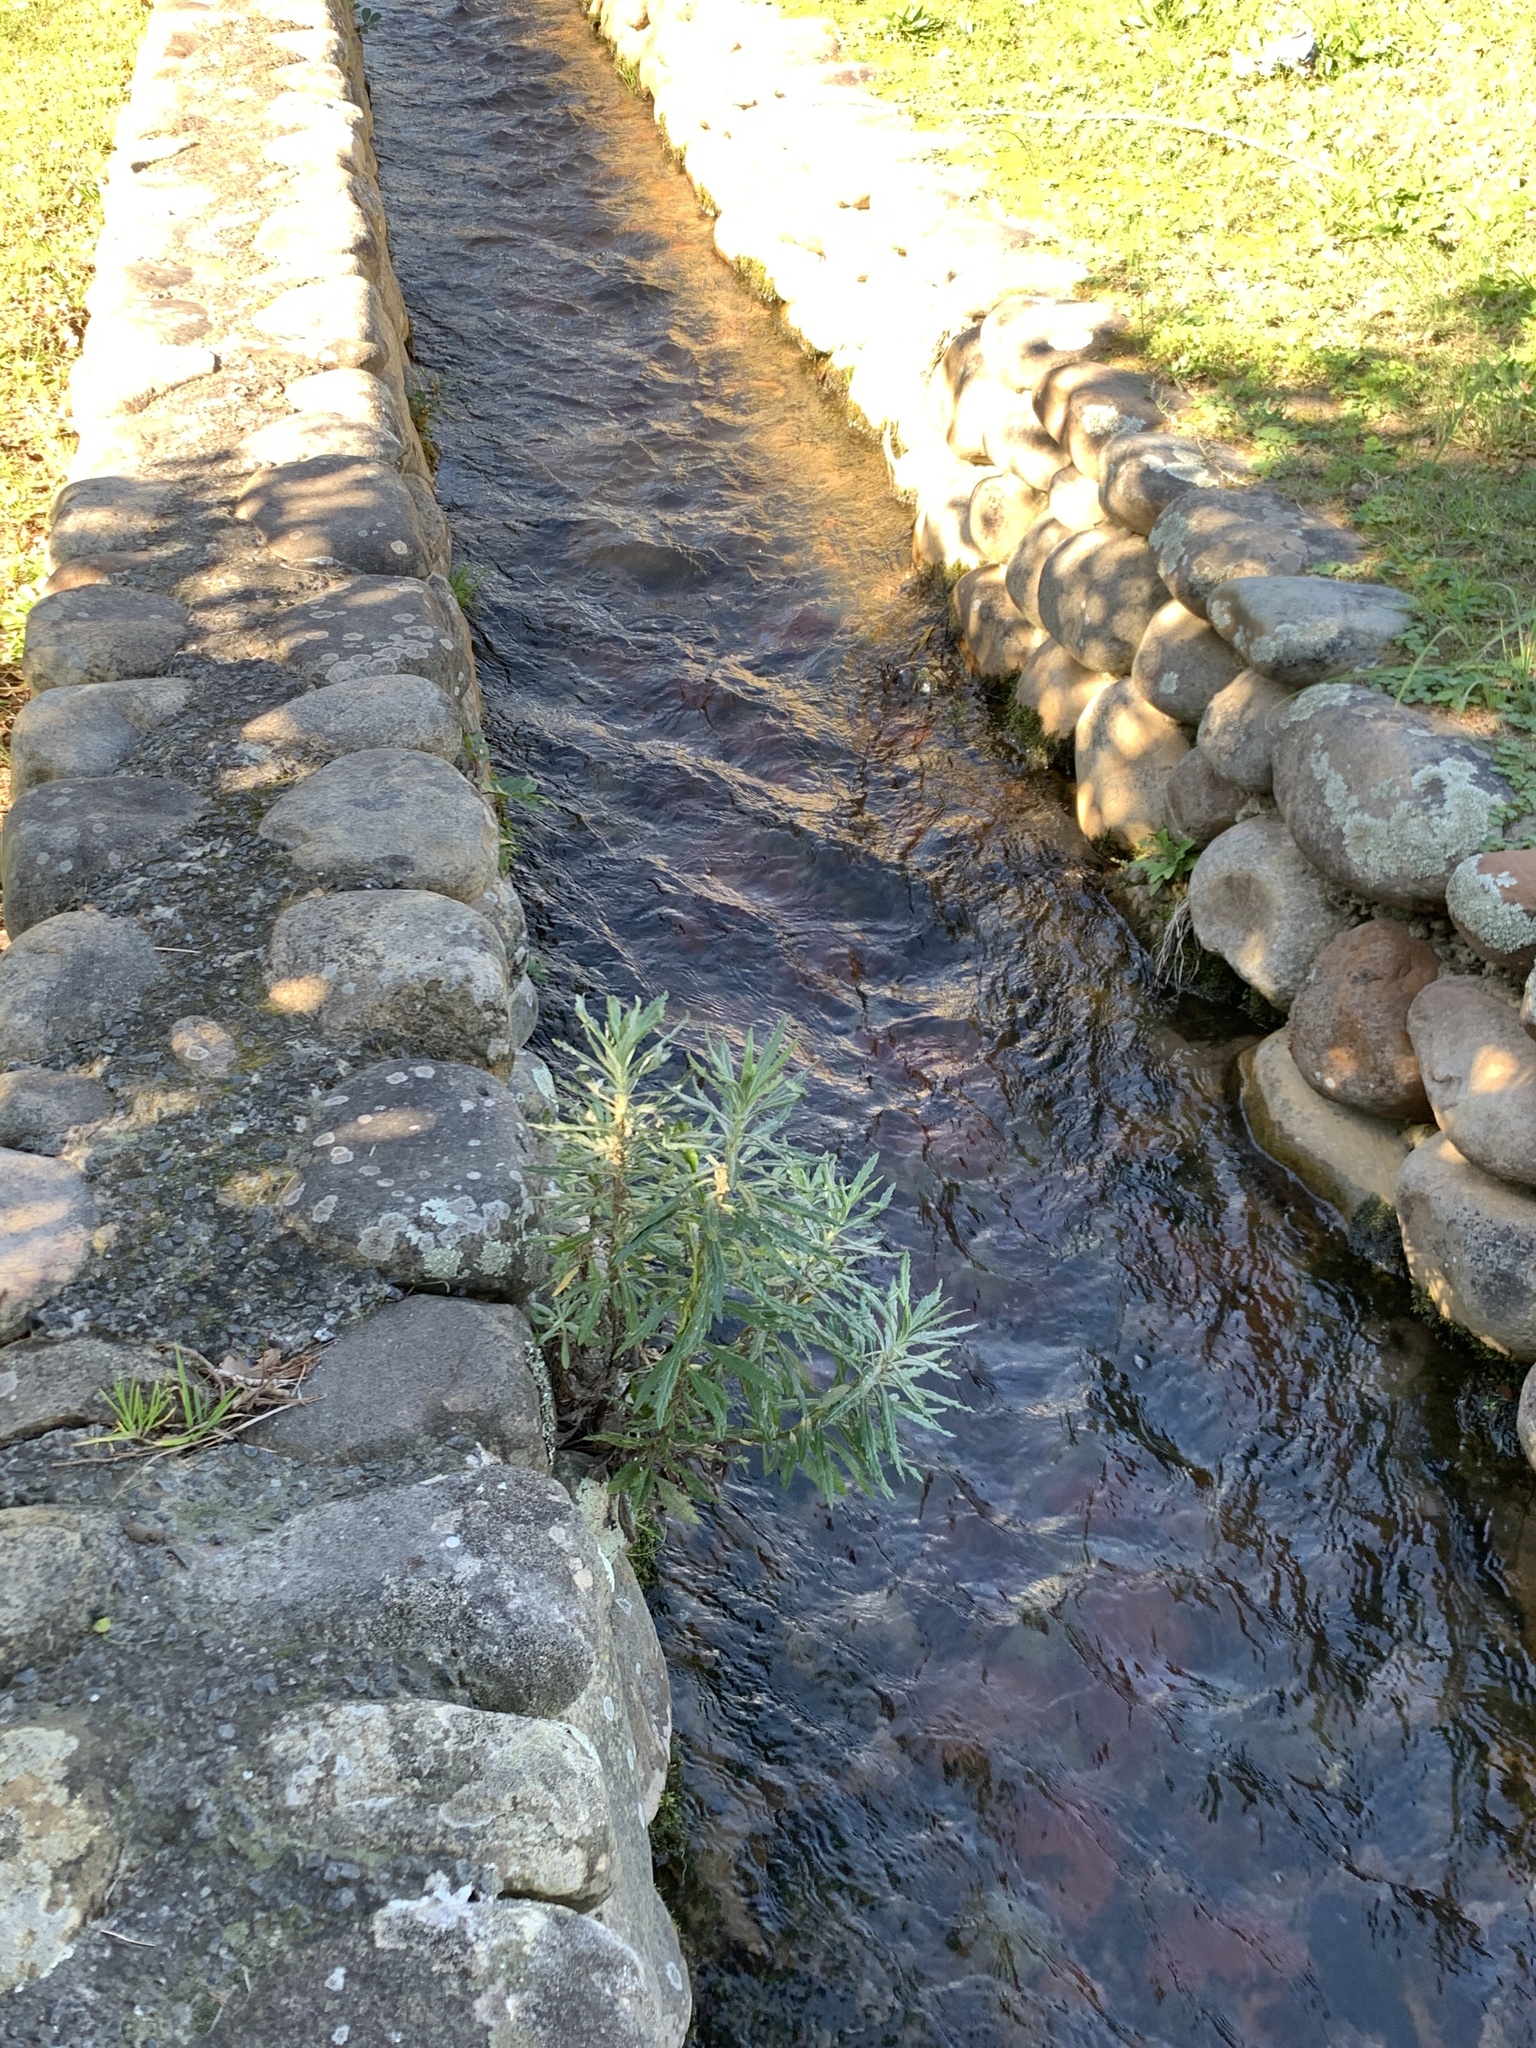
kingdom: Plantae
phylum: Tracheophyta
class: Magnoliopsida
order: Asterales
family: Asteraceae
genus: Senecio
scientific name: Senecio pterophorus
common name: Shoddy ragwort
